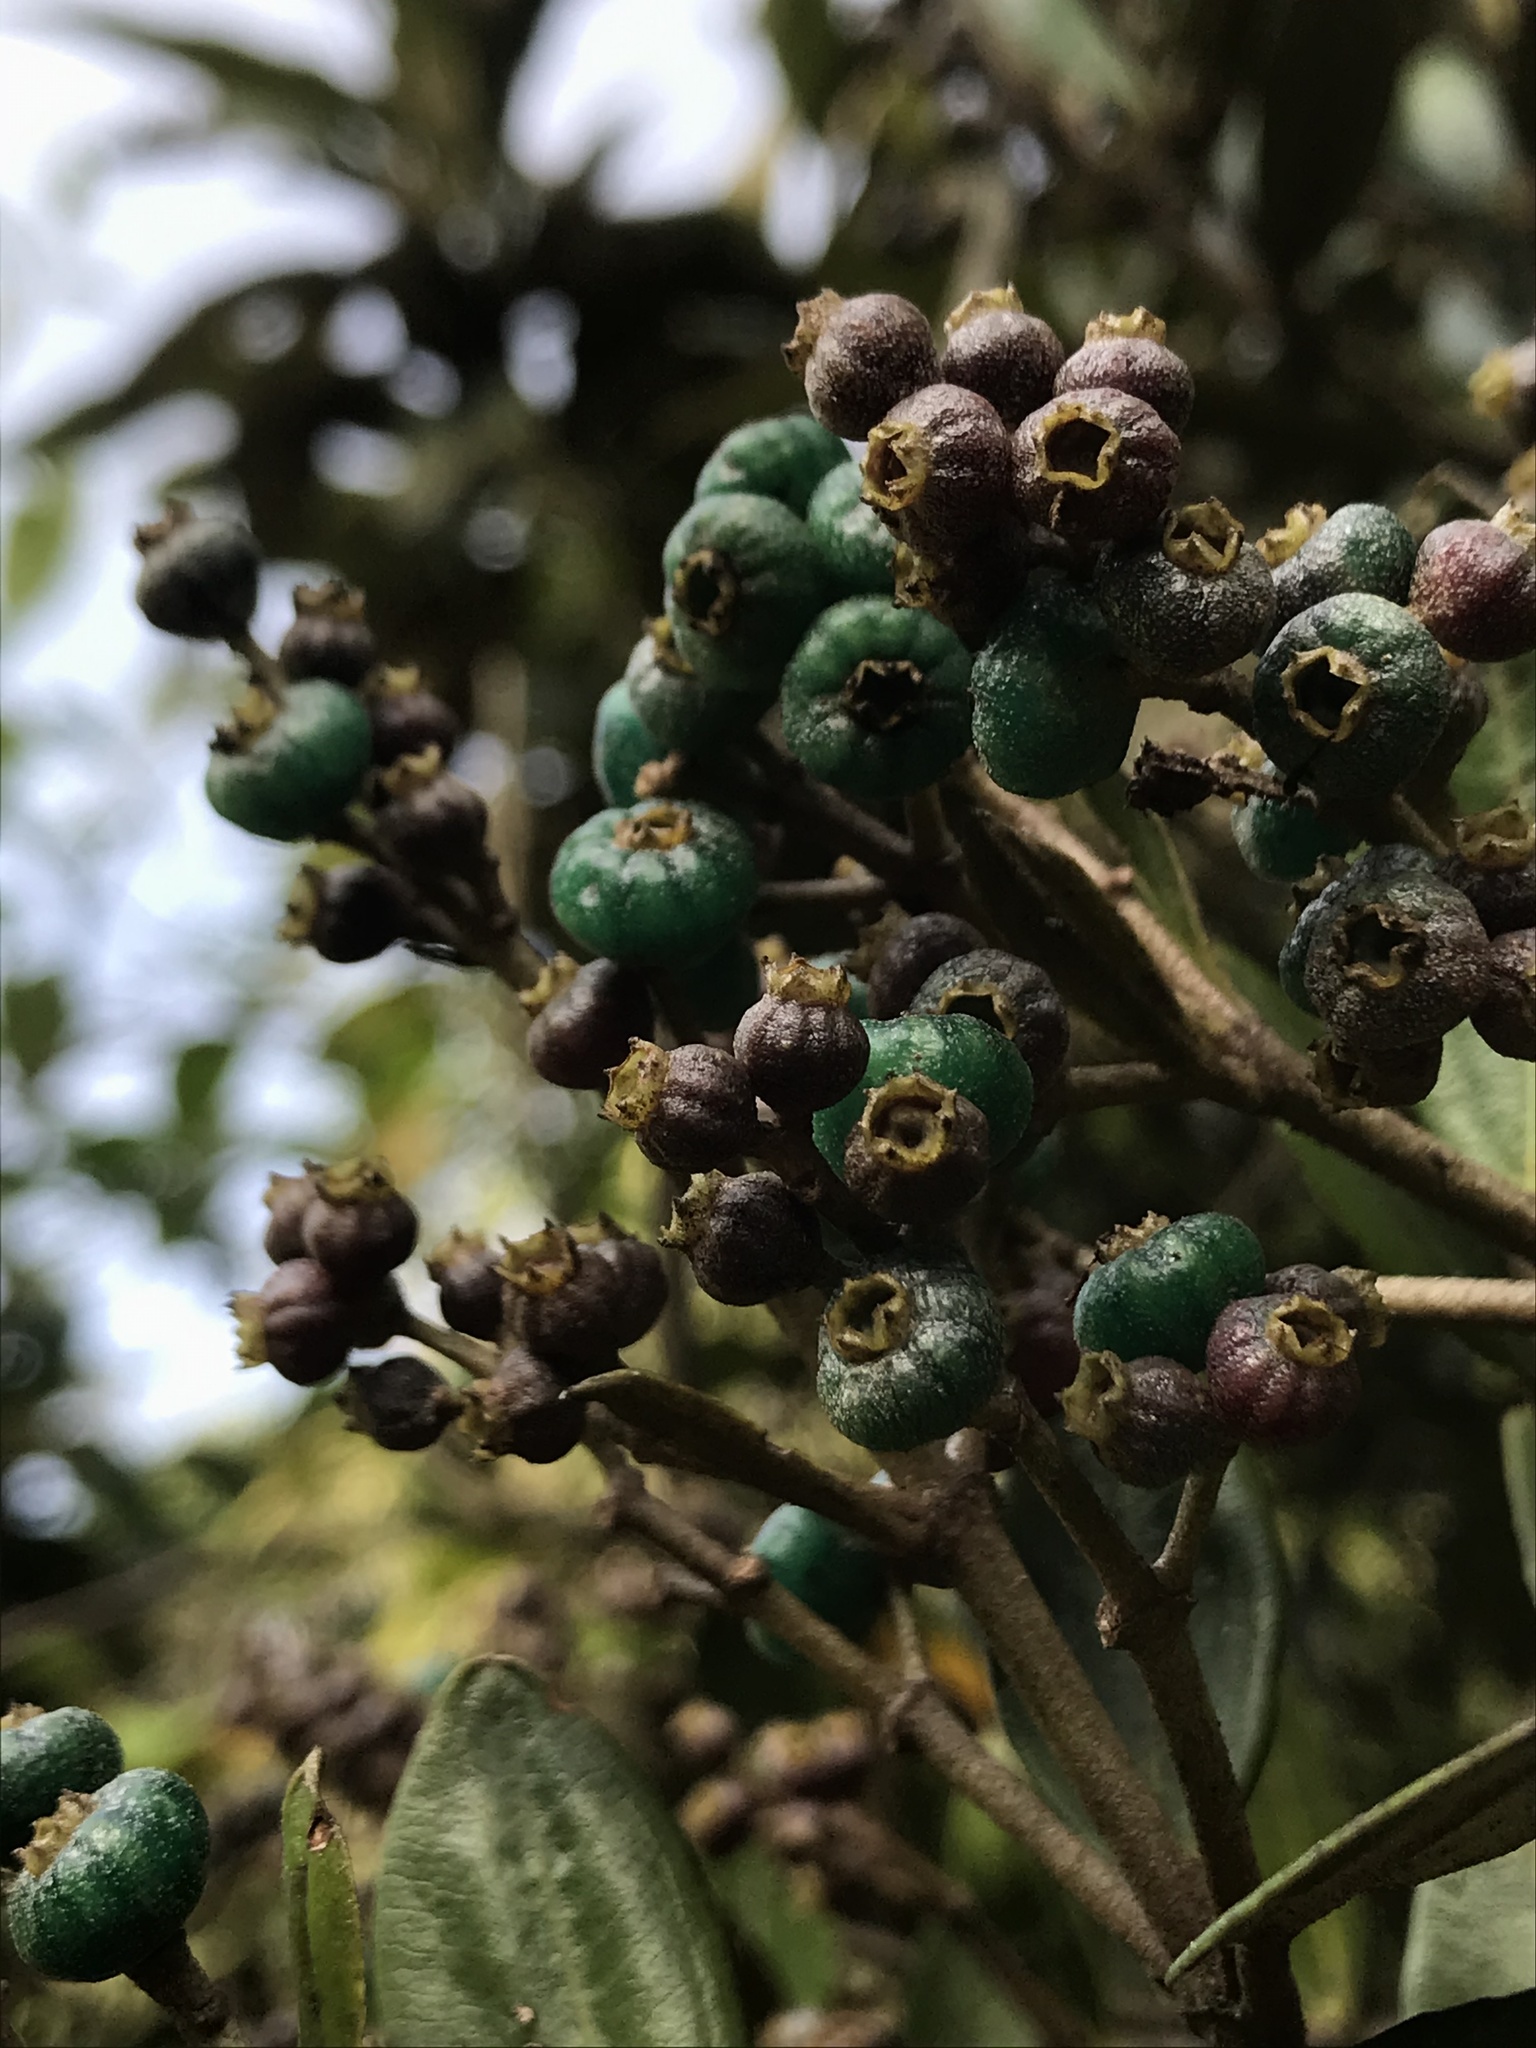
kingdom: Plantae
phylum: Tracheophyta
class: Magnoliopsida
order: Myrtales
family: Melastomataceae
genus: Miconia
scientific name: Miconia squamulosa
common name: Squamulose maya
